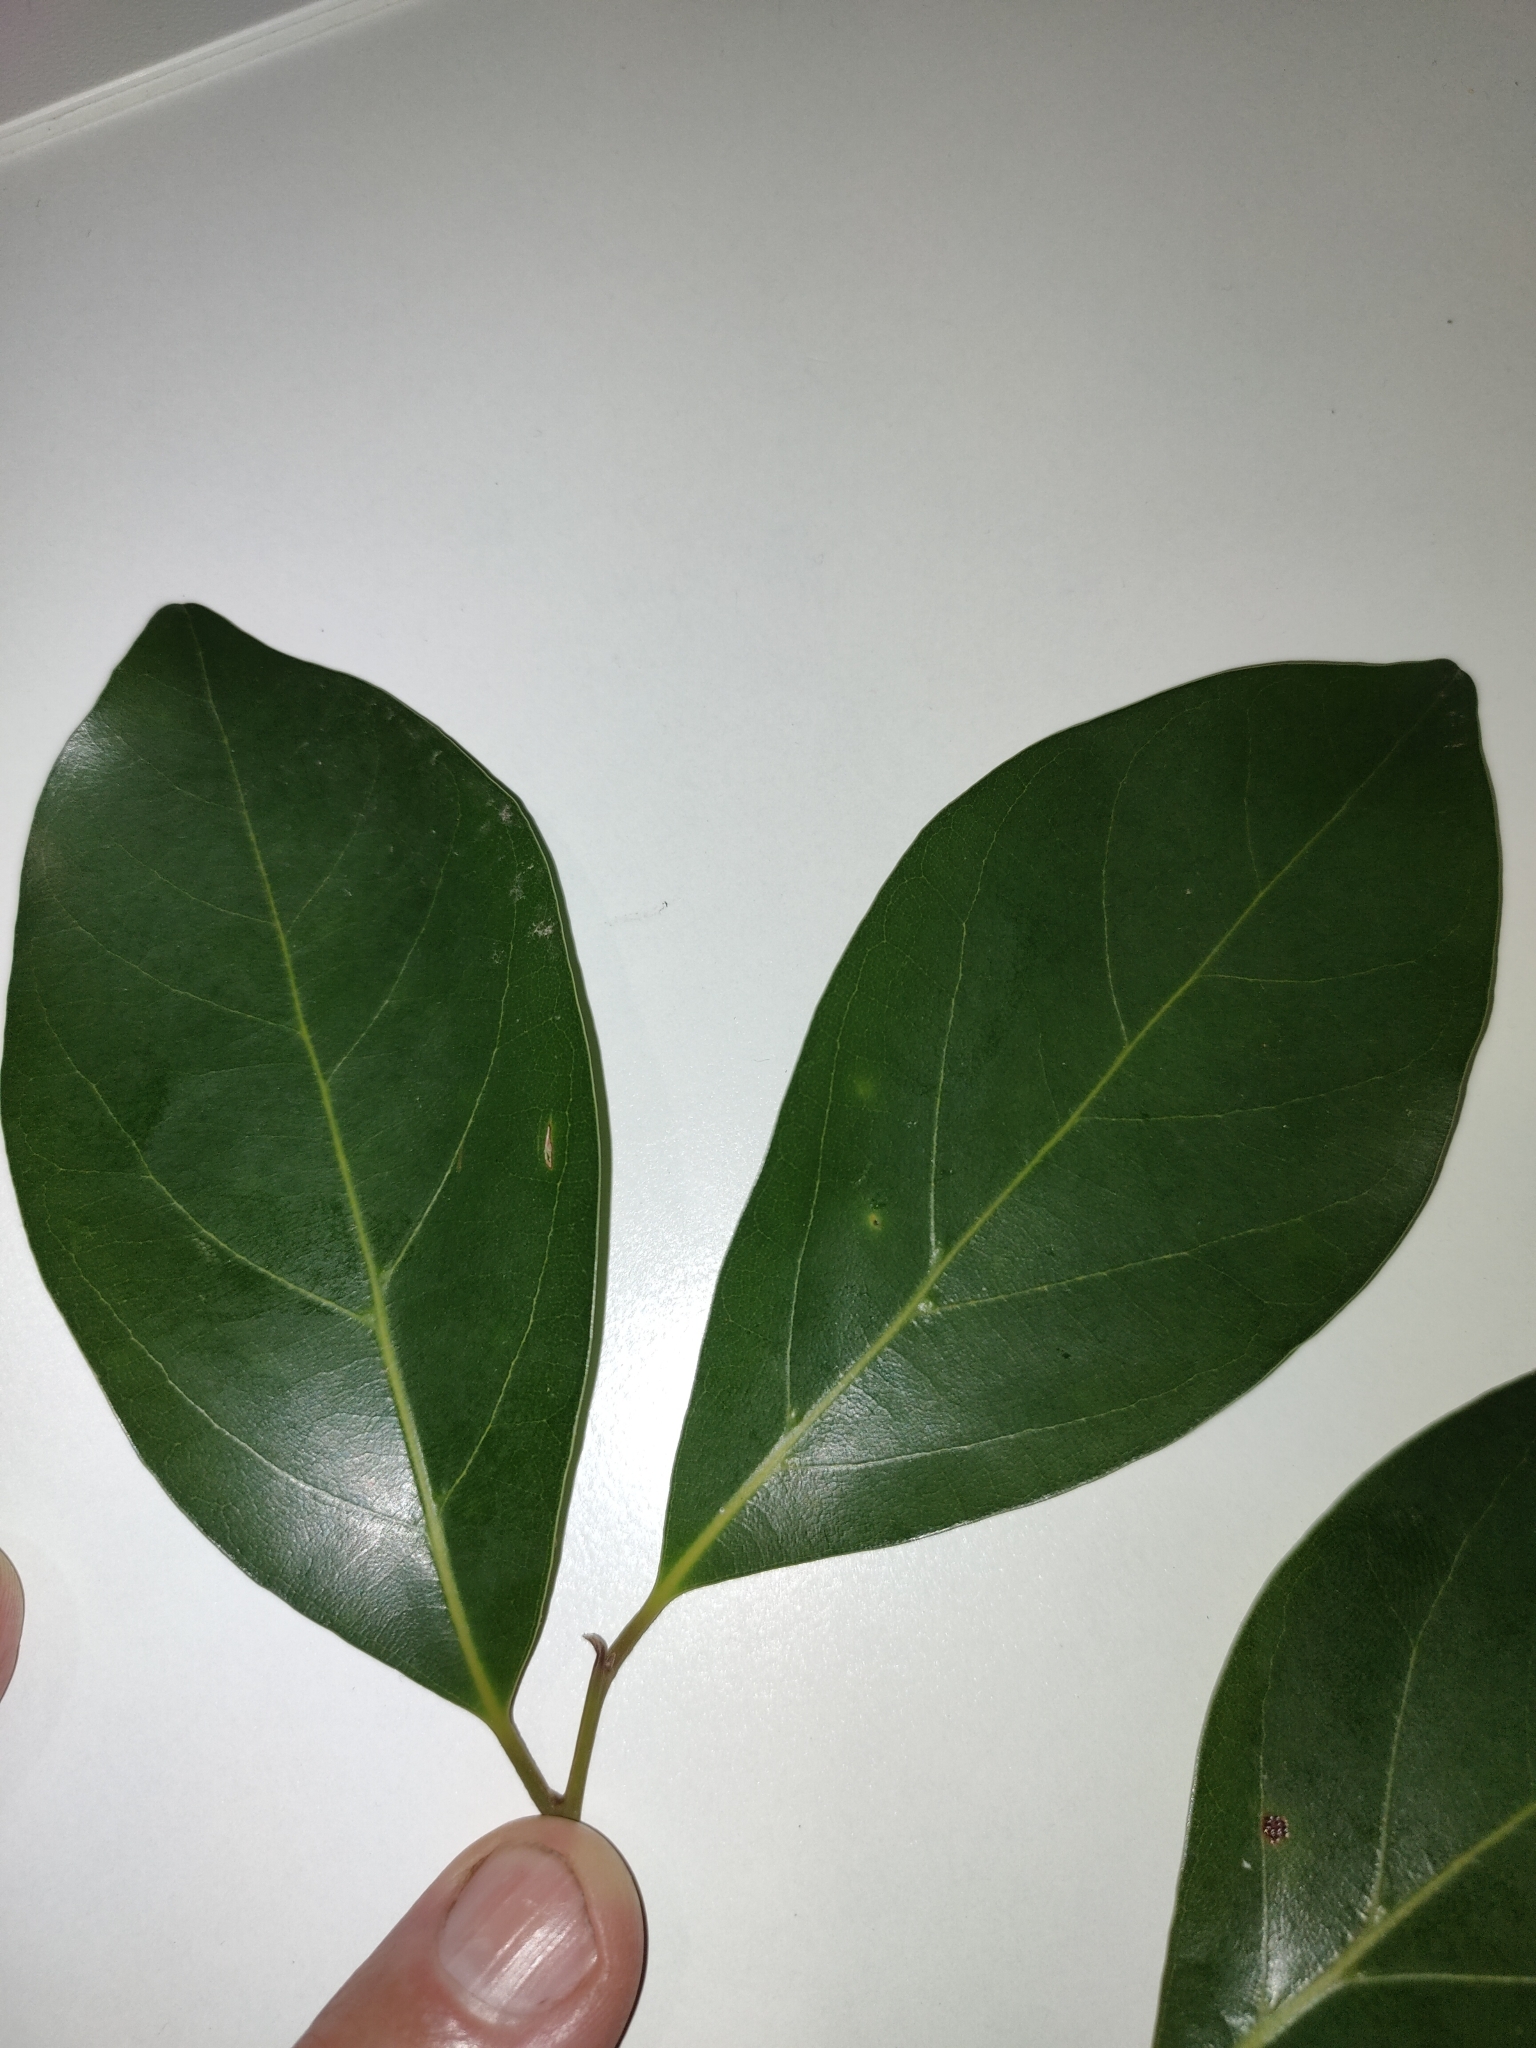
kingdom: Plantae
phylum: Tracheophyta
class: Magnoliopsida
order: Laurales
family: Lauraceae
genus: Endiandra
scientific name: Endiandra discolor
